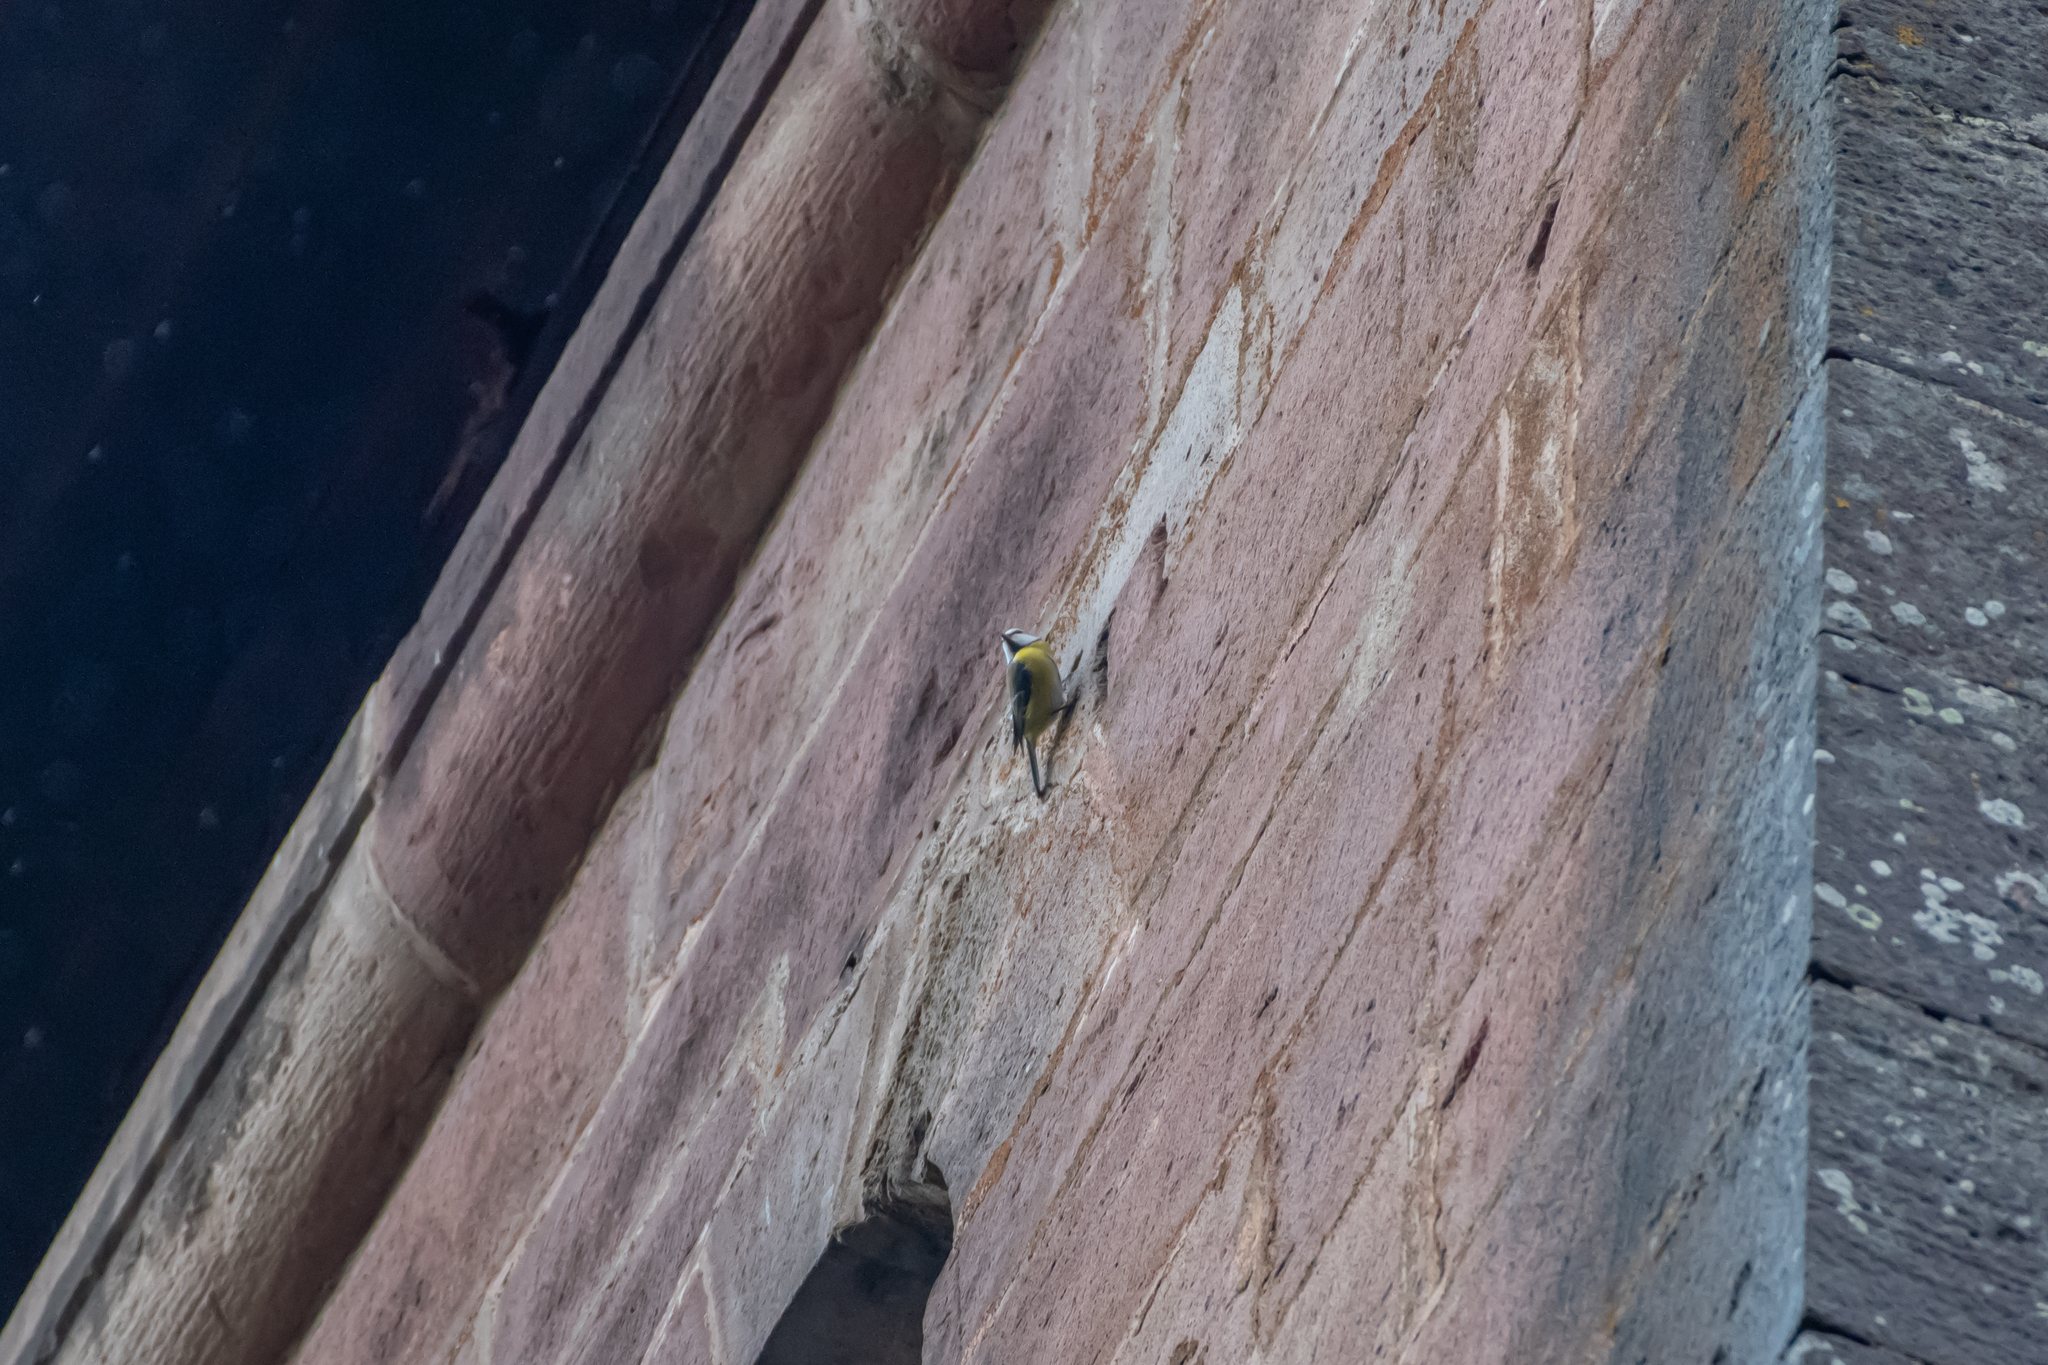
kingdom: Animalia
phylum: Chordata
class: Aves
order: Passeriformes
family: Paridae
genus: Cyanistes
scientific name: Cyanistes caeruleus
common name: Eurasian blue tit
